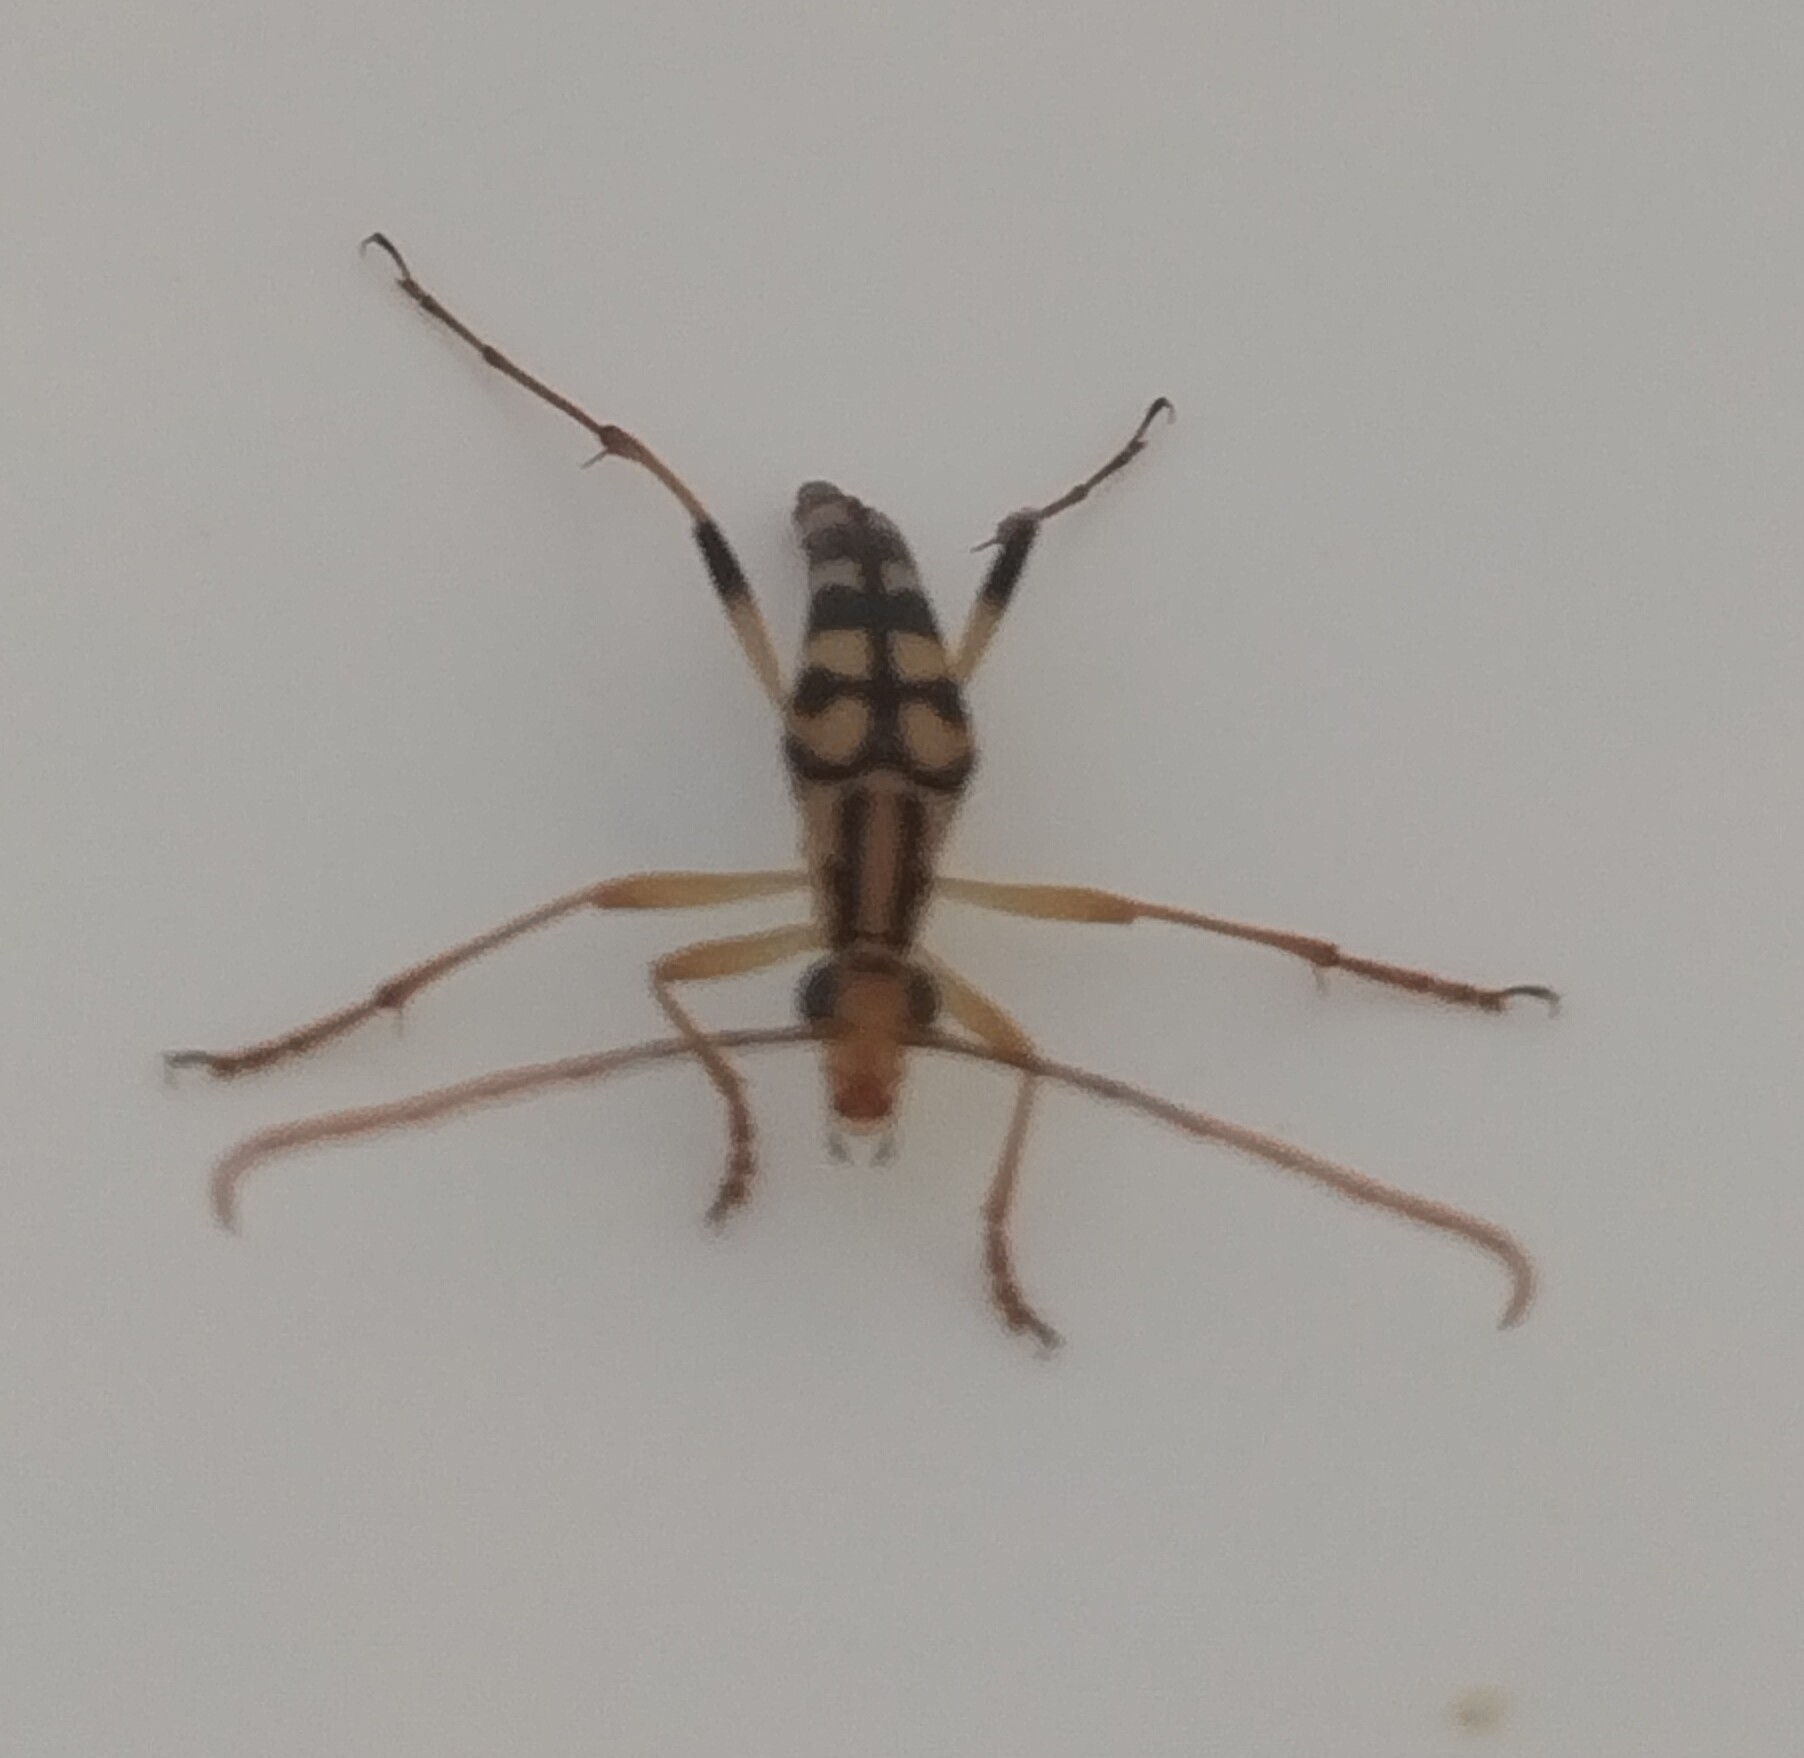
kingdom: Animalia
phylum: Arthropoda
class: Insecta
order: Coleoptera
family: Cerambycidae
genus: Strangalia
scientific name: Strangalia luteicornis
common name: Yellow-horned flower longhorn beetle
